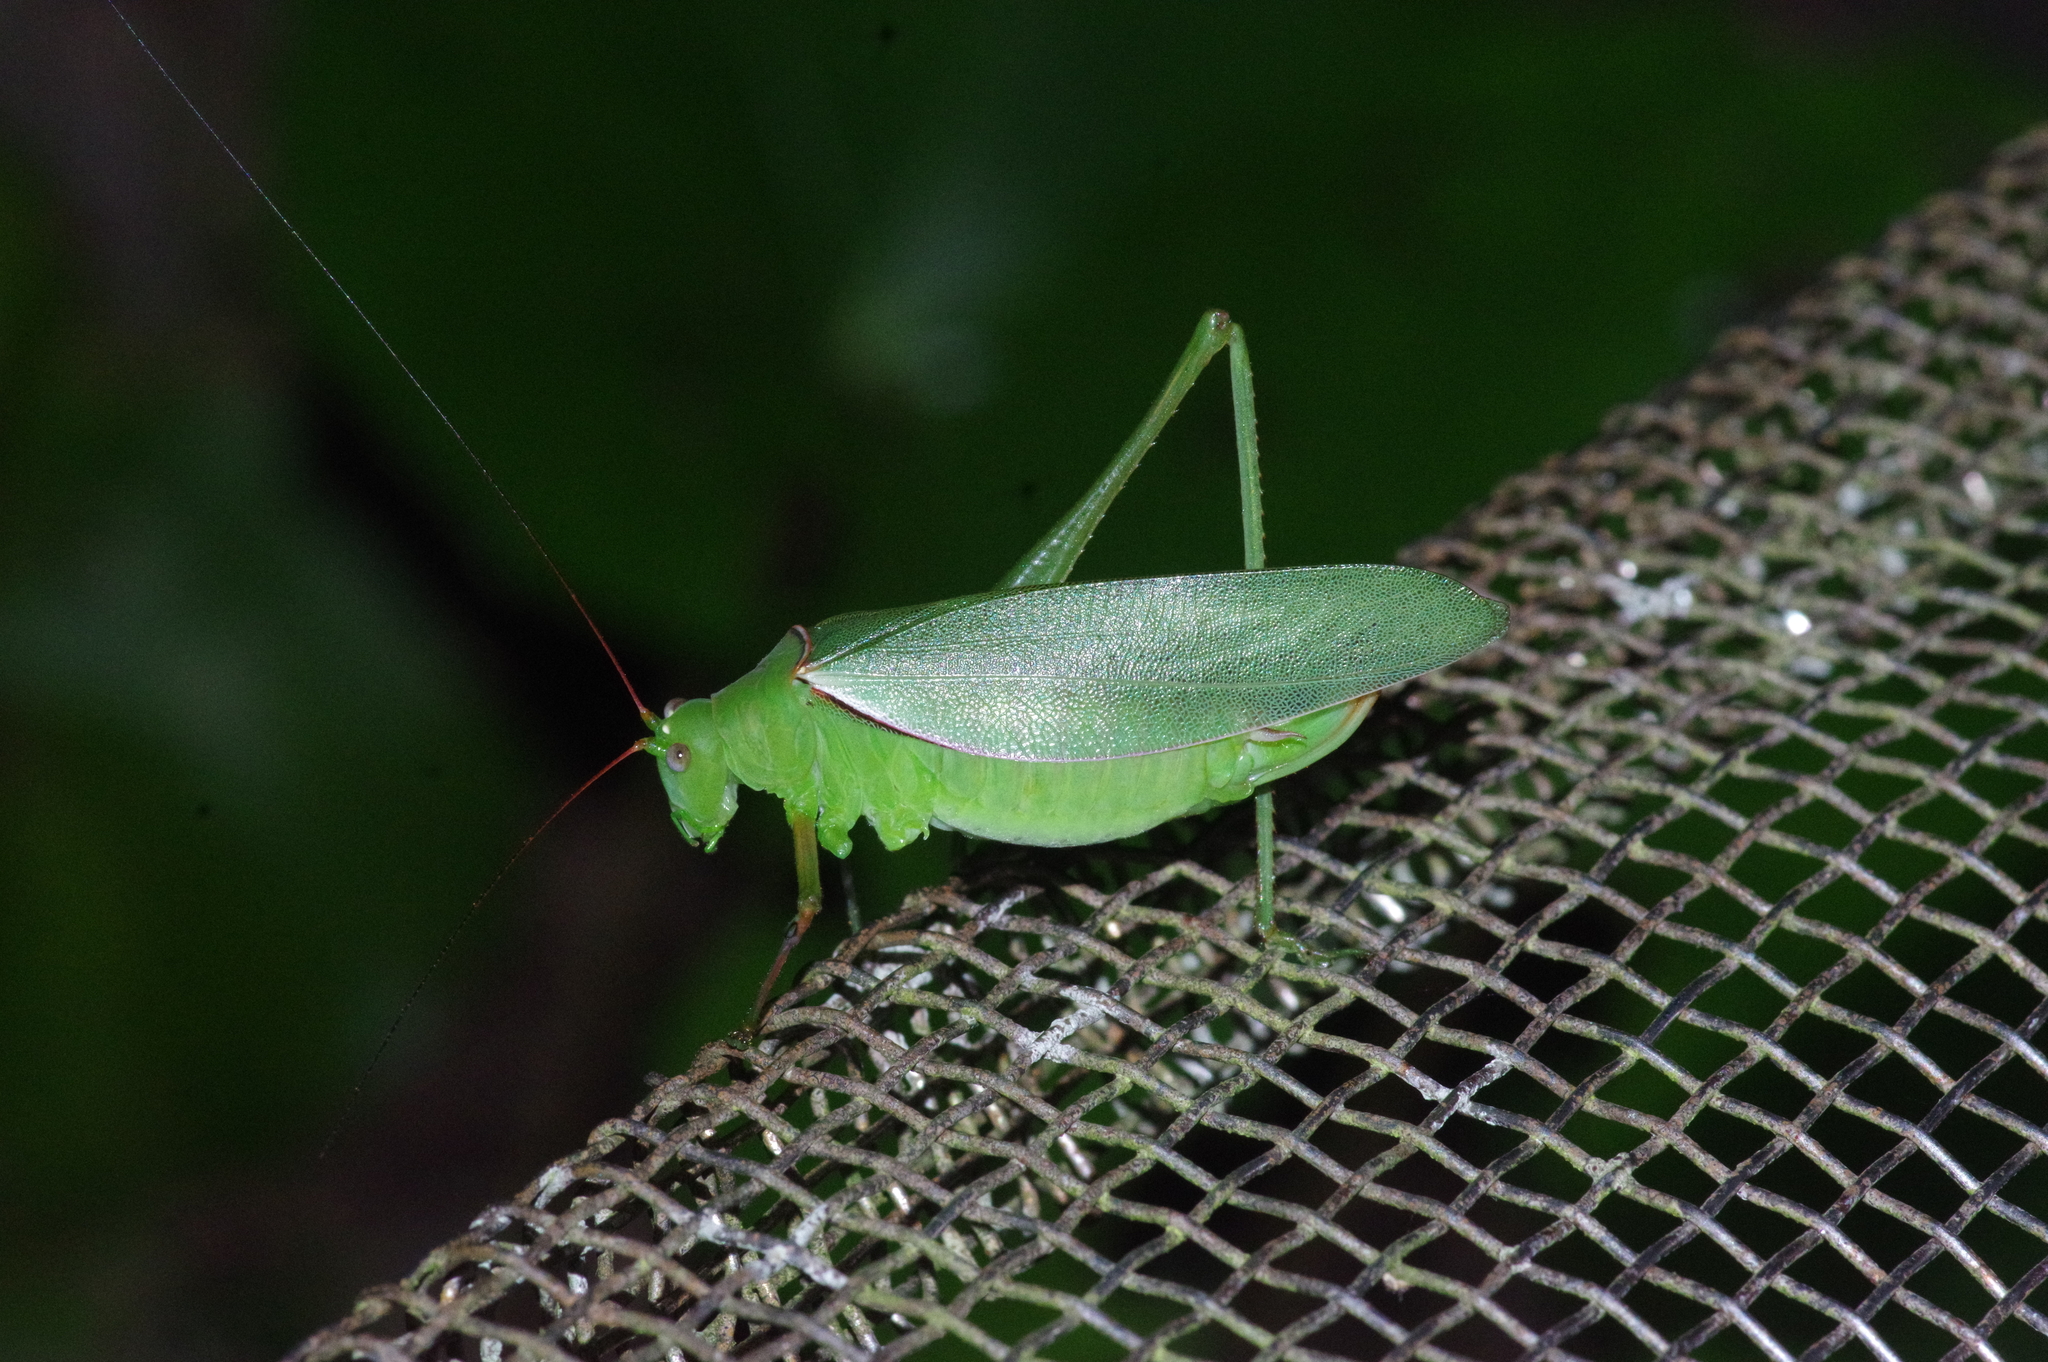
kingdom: Animalia
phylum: Arthropoda
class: Insecta
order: Orthoptera
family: Tettigoniidae
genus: Psyrana
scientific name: Psyrana ryukyuensis
